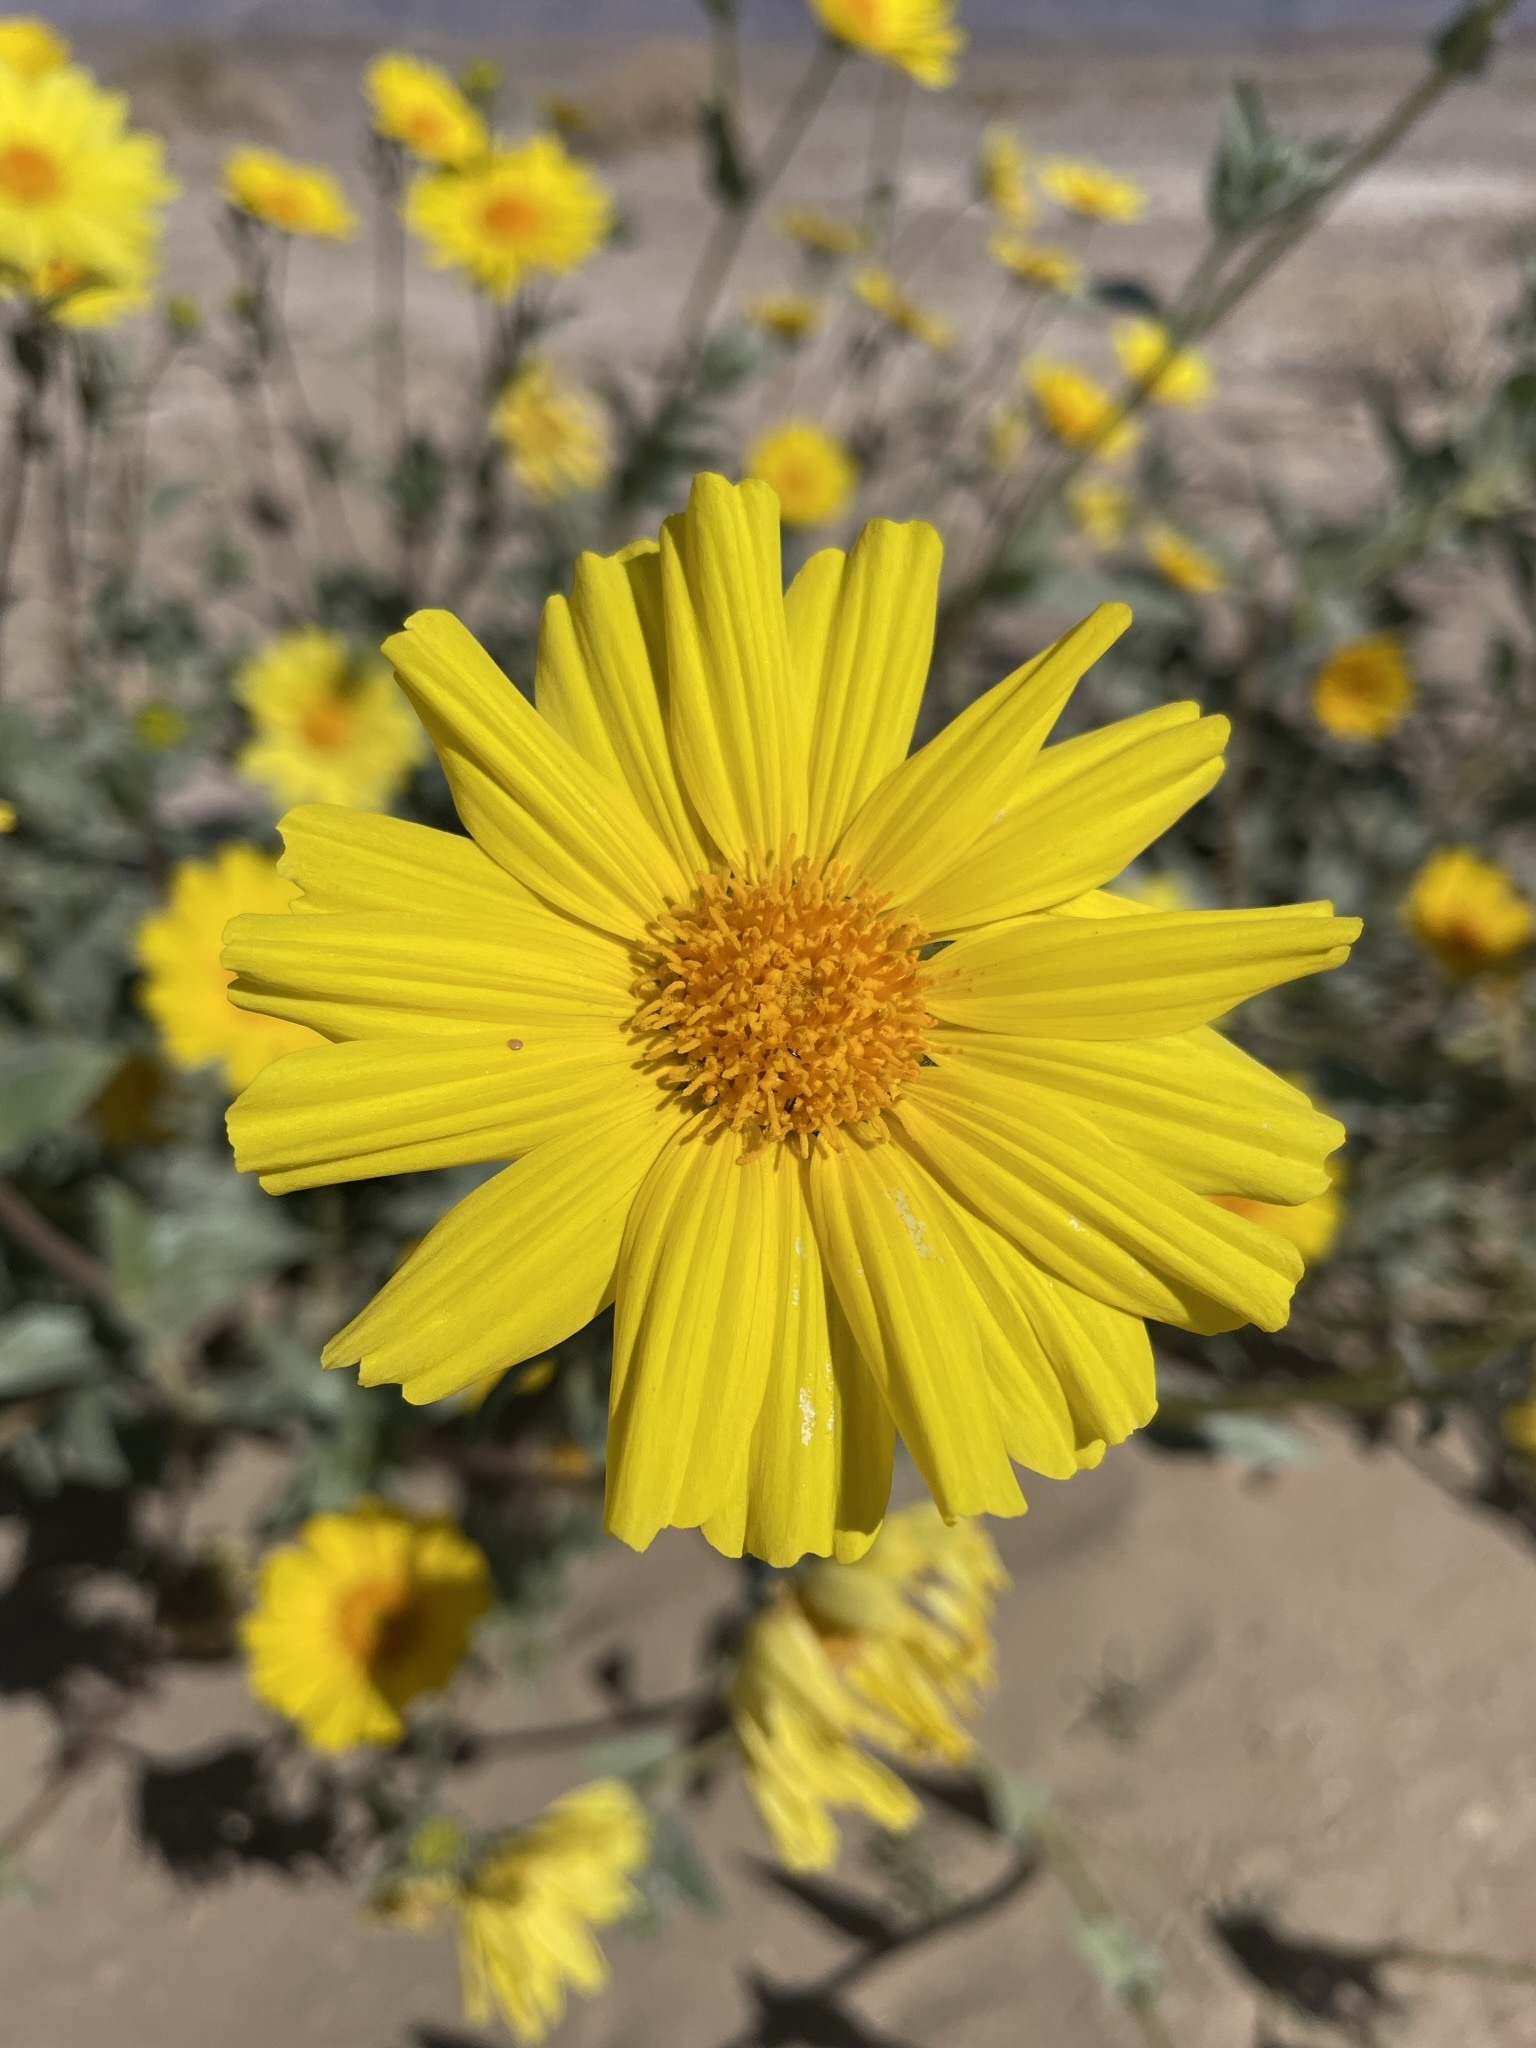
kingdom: Plantae
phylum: Tracheophyta
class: Magnoliopsida
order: Asterales
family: Asteraceae
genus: Geraea
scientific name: Geraea canescens
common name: Desert-gold
